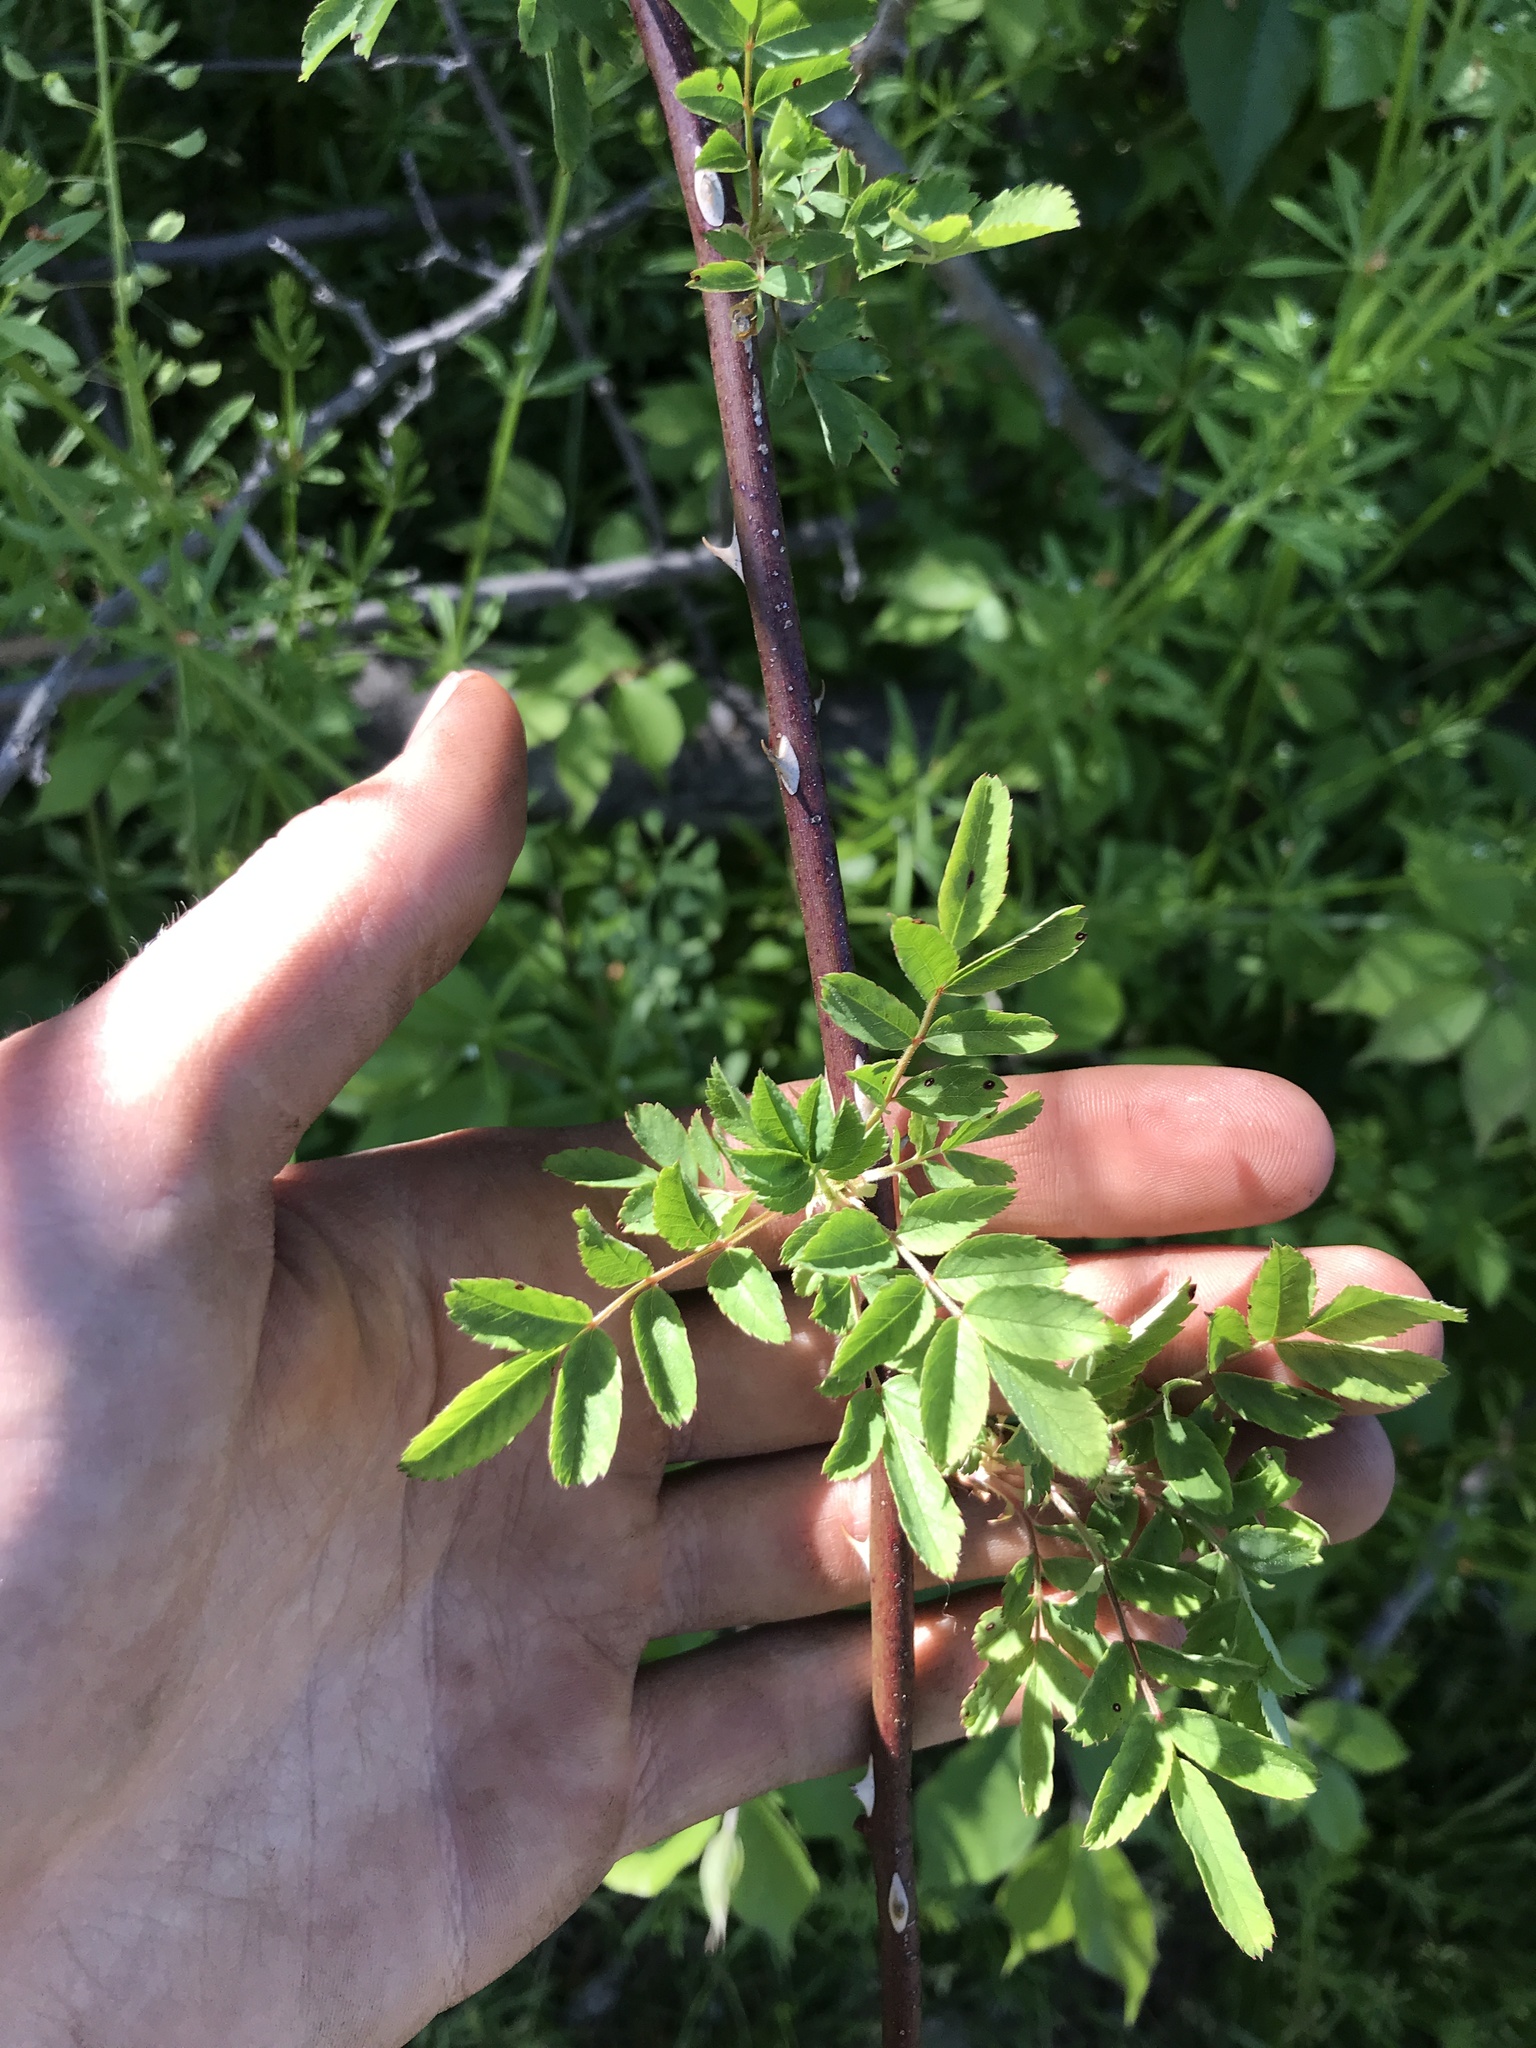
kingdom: Plantae
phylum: Tracheophyta
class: Magnoliopsida
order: Rosales
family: Rosaceae
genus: Rosa
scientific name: Rosa multiflora
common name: Multiflora rose
